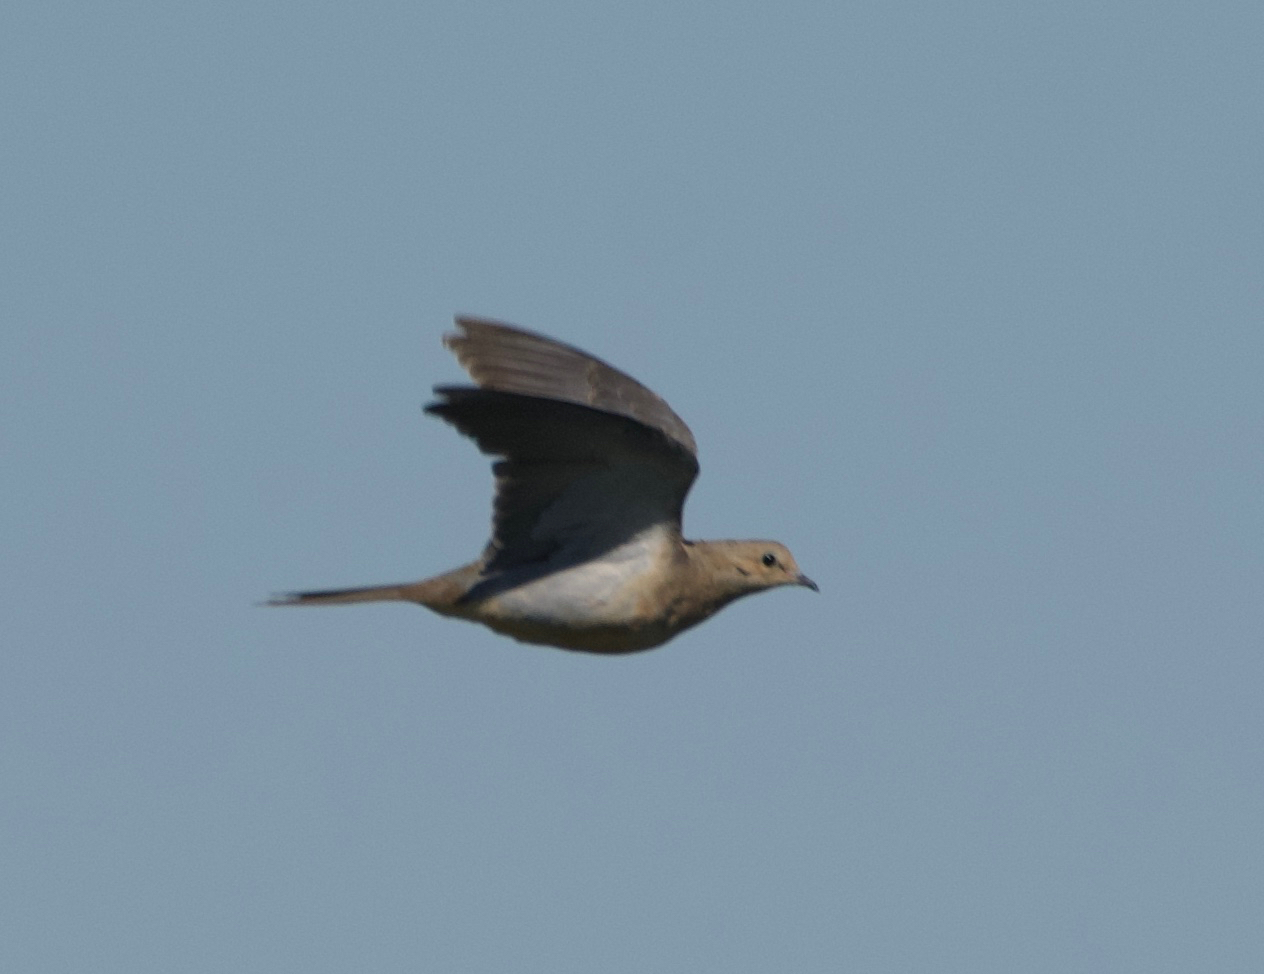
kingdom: Animalia
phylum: Chordata
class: Aves
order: Columbiformes
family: Columbidae
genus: Zenaida
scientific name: Zenaida macroura
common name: Mourning dove
